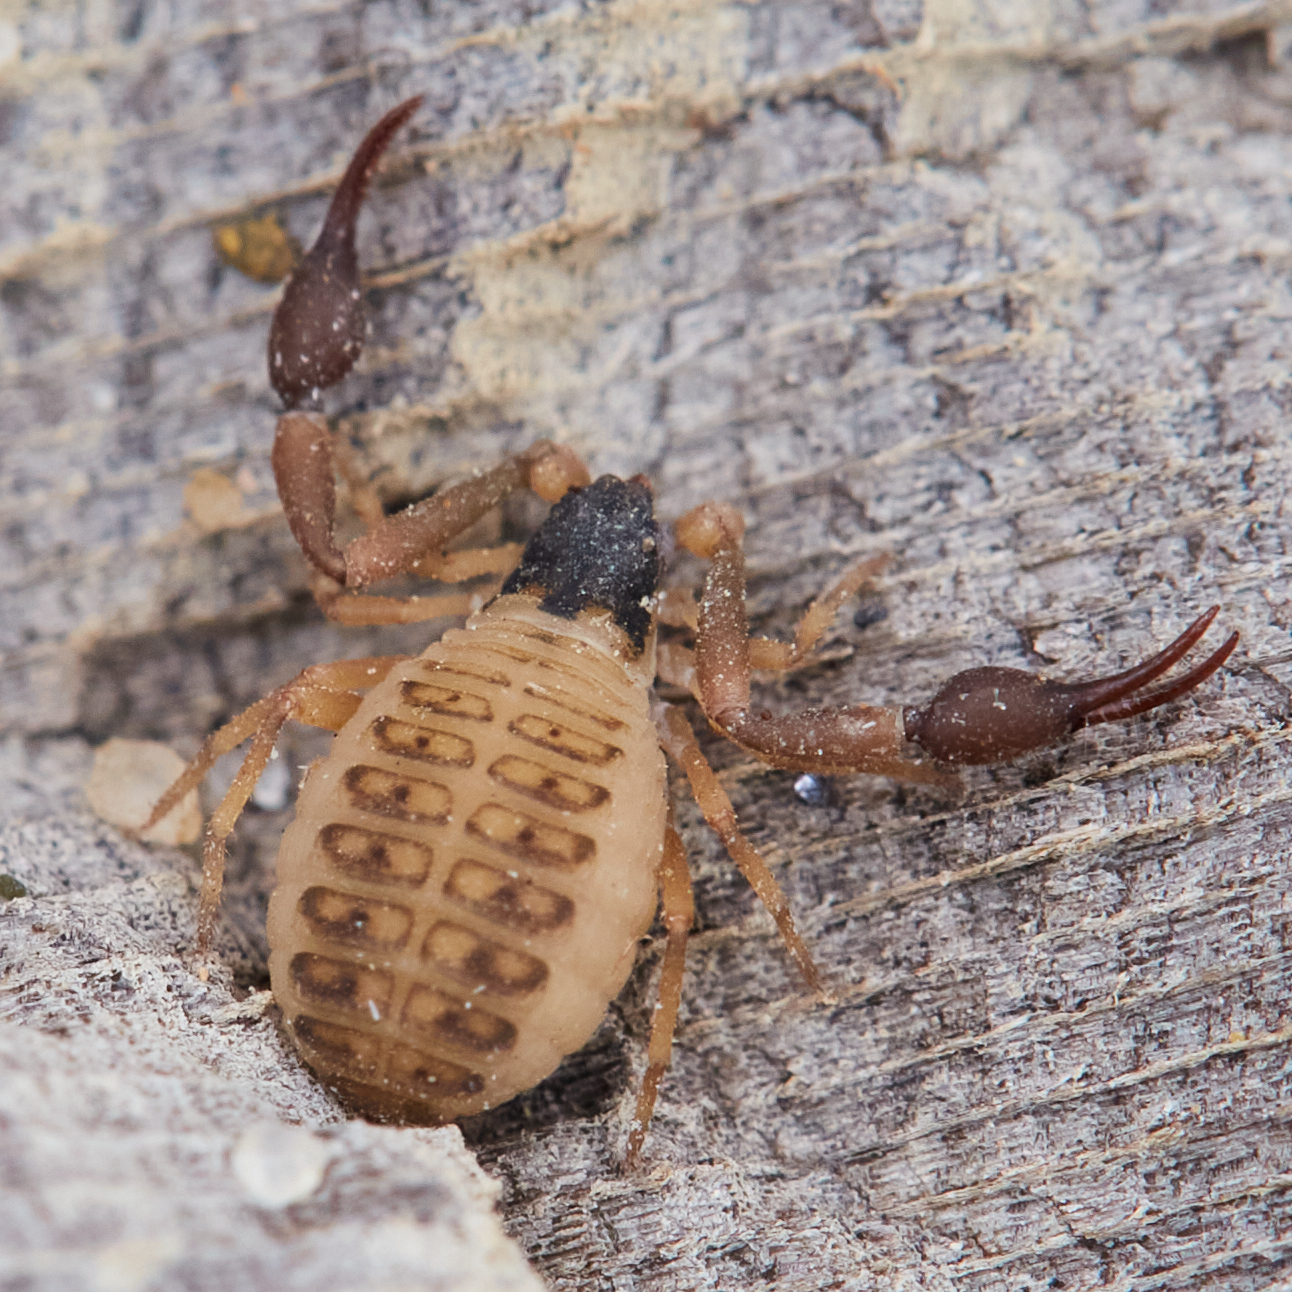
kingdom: Animalia
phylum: Arthropoda
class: Arachnida
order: Pseudoscorpiones
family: Garypidae
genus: Anchigarypus
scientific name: Anchigarypus californicus
